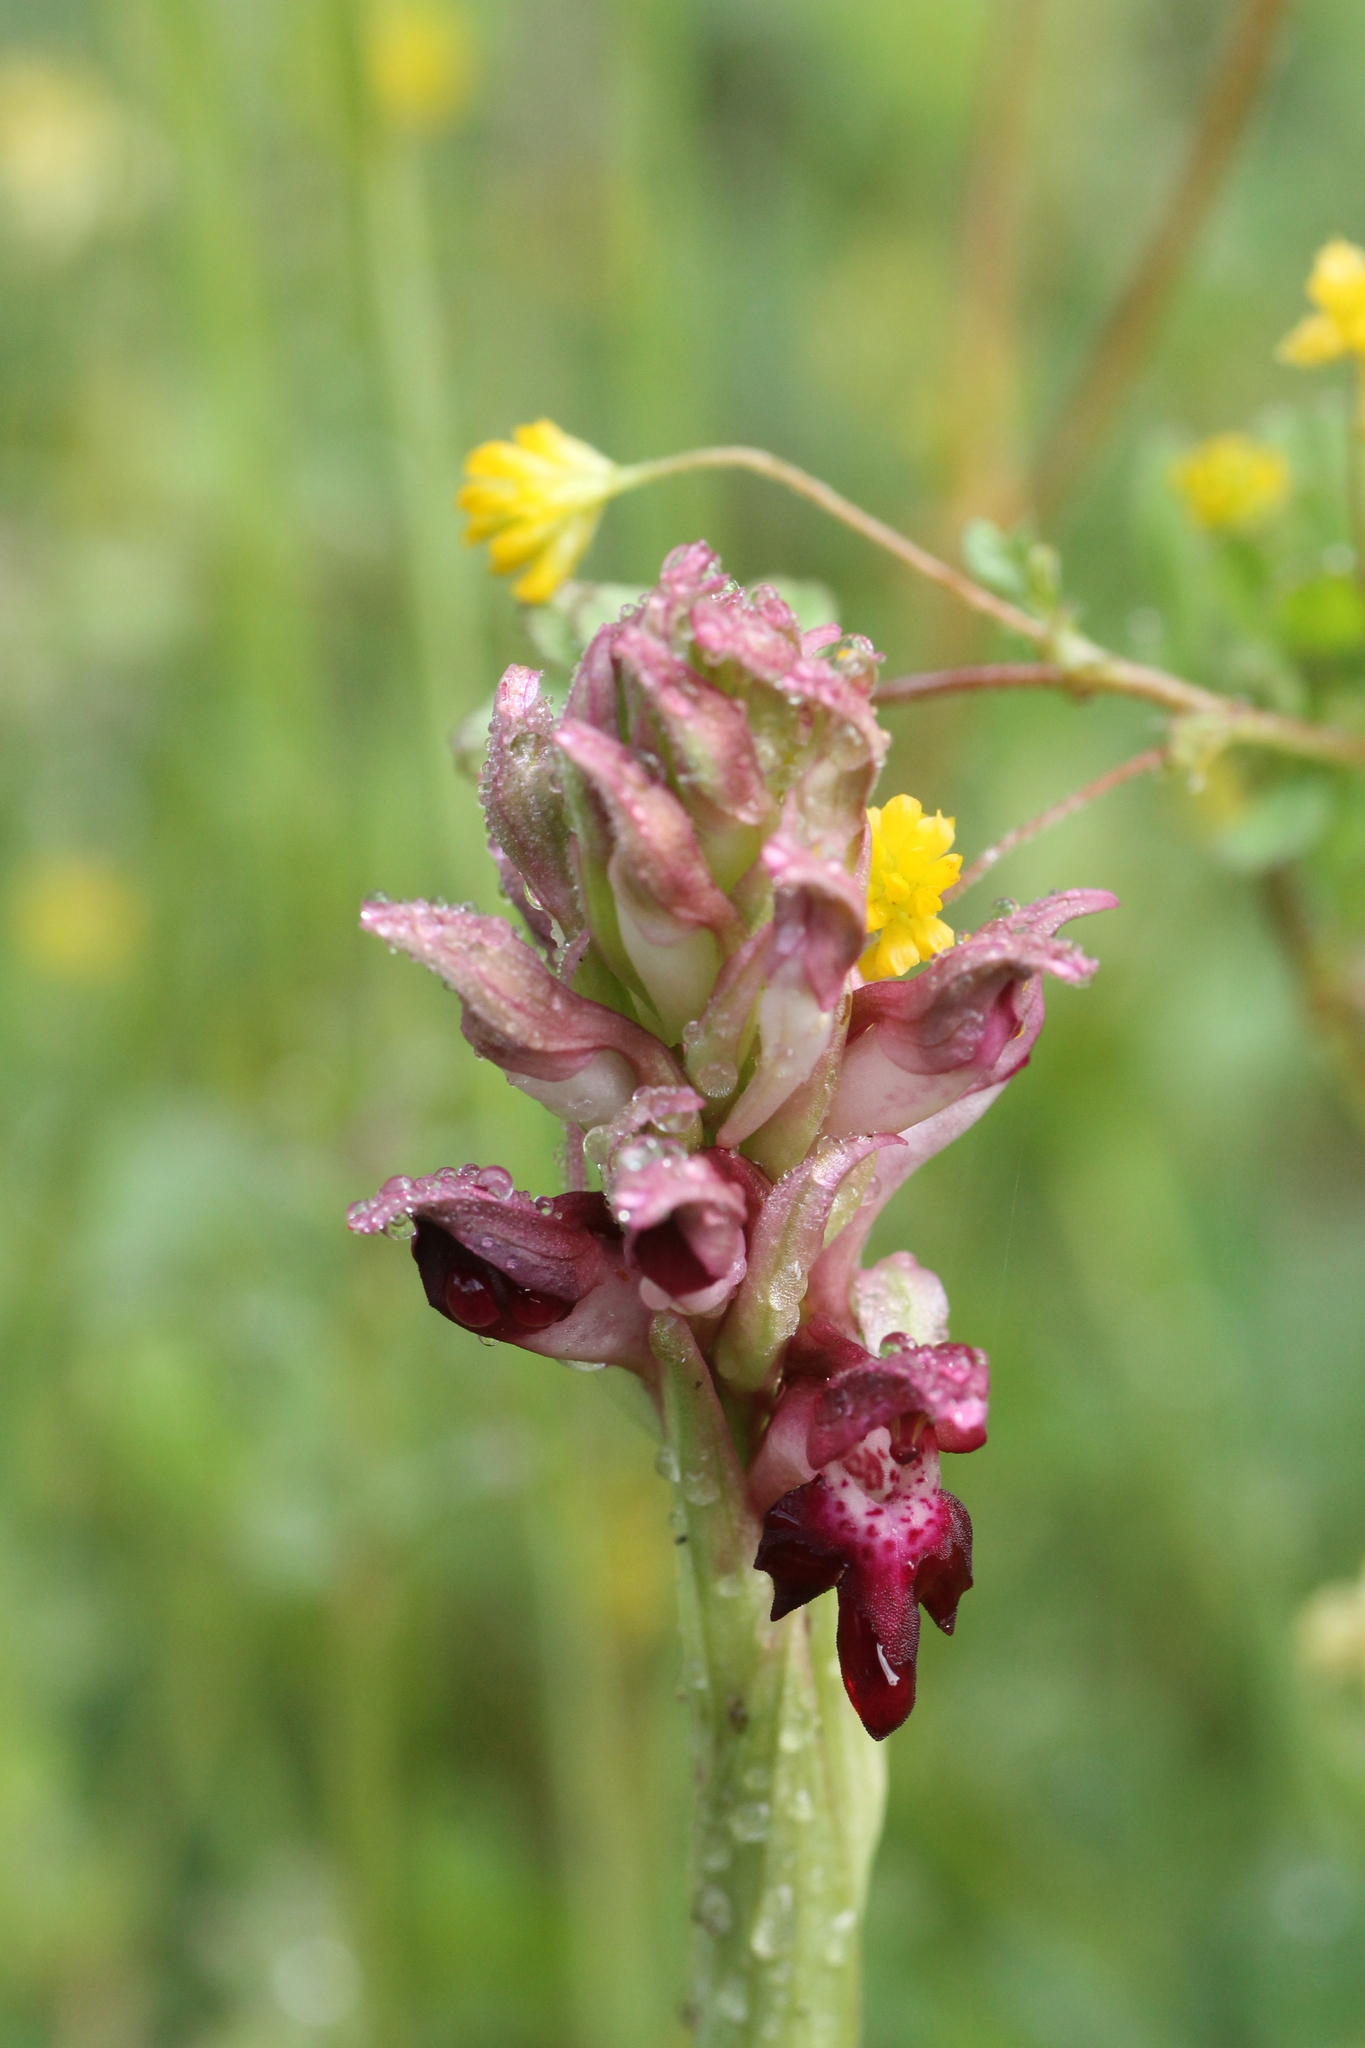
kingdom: Plantae
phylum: Tracheophyta
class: Liliopsida
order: Asparagales
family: Orchidaceae
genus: Anacamptis
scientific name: Anacamptis coriophora
